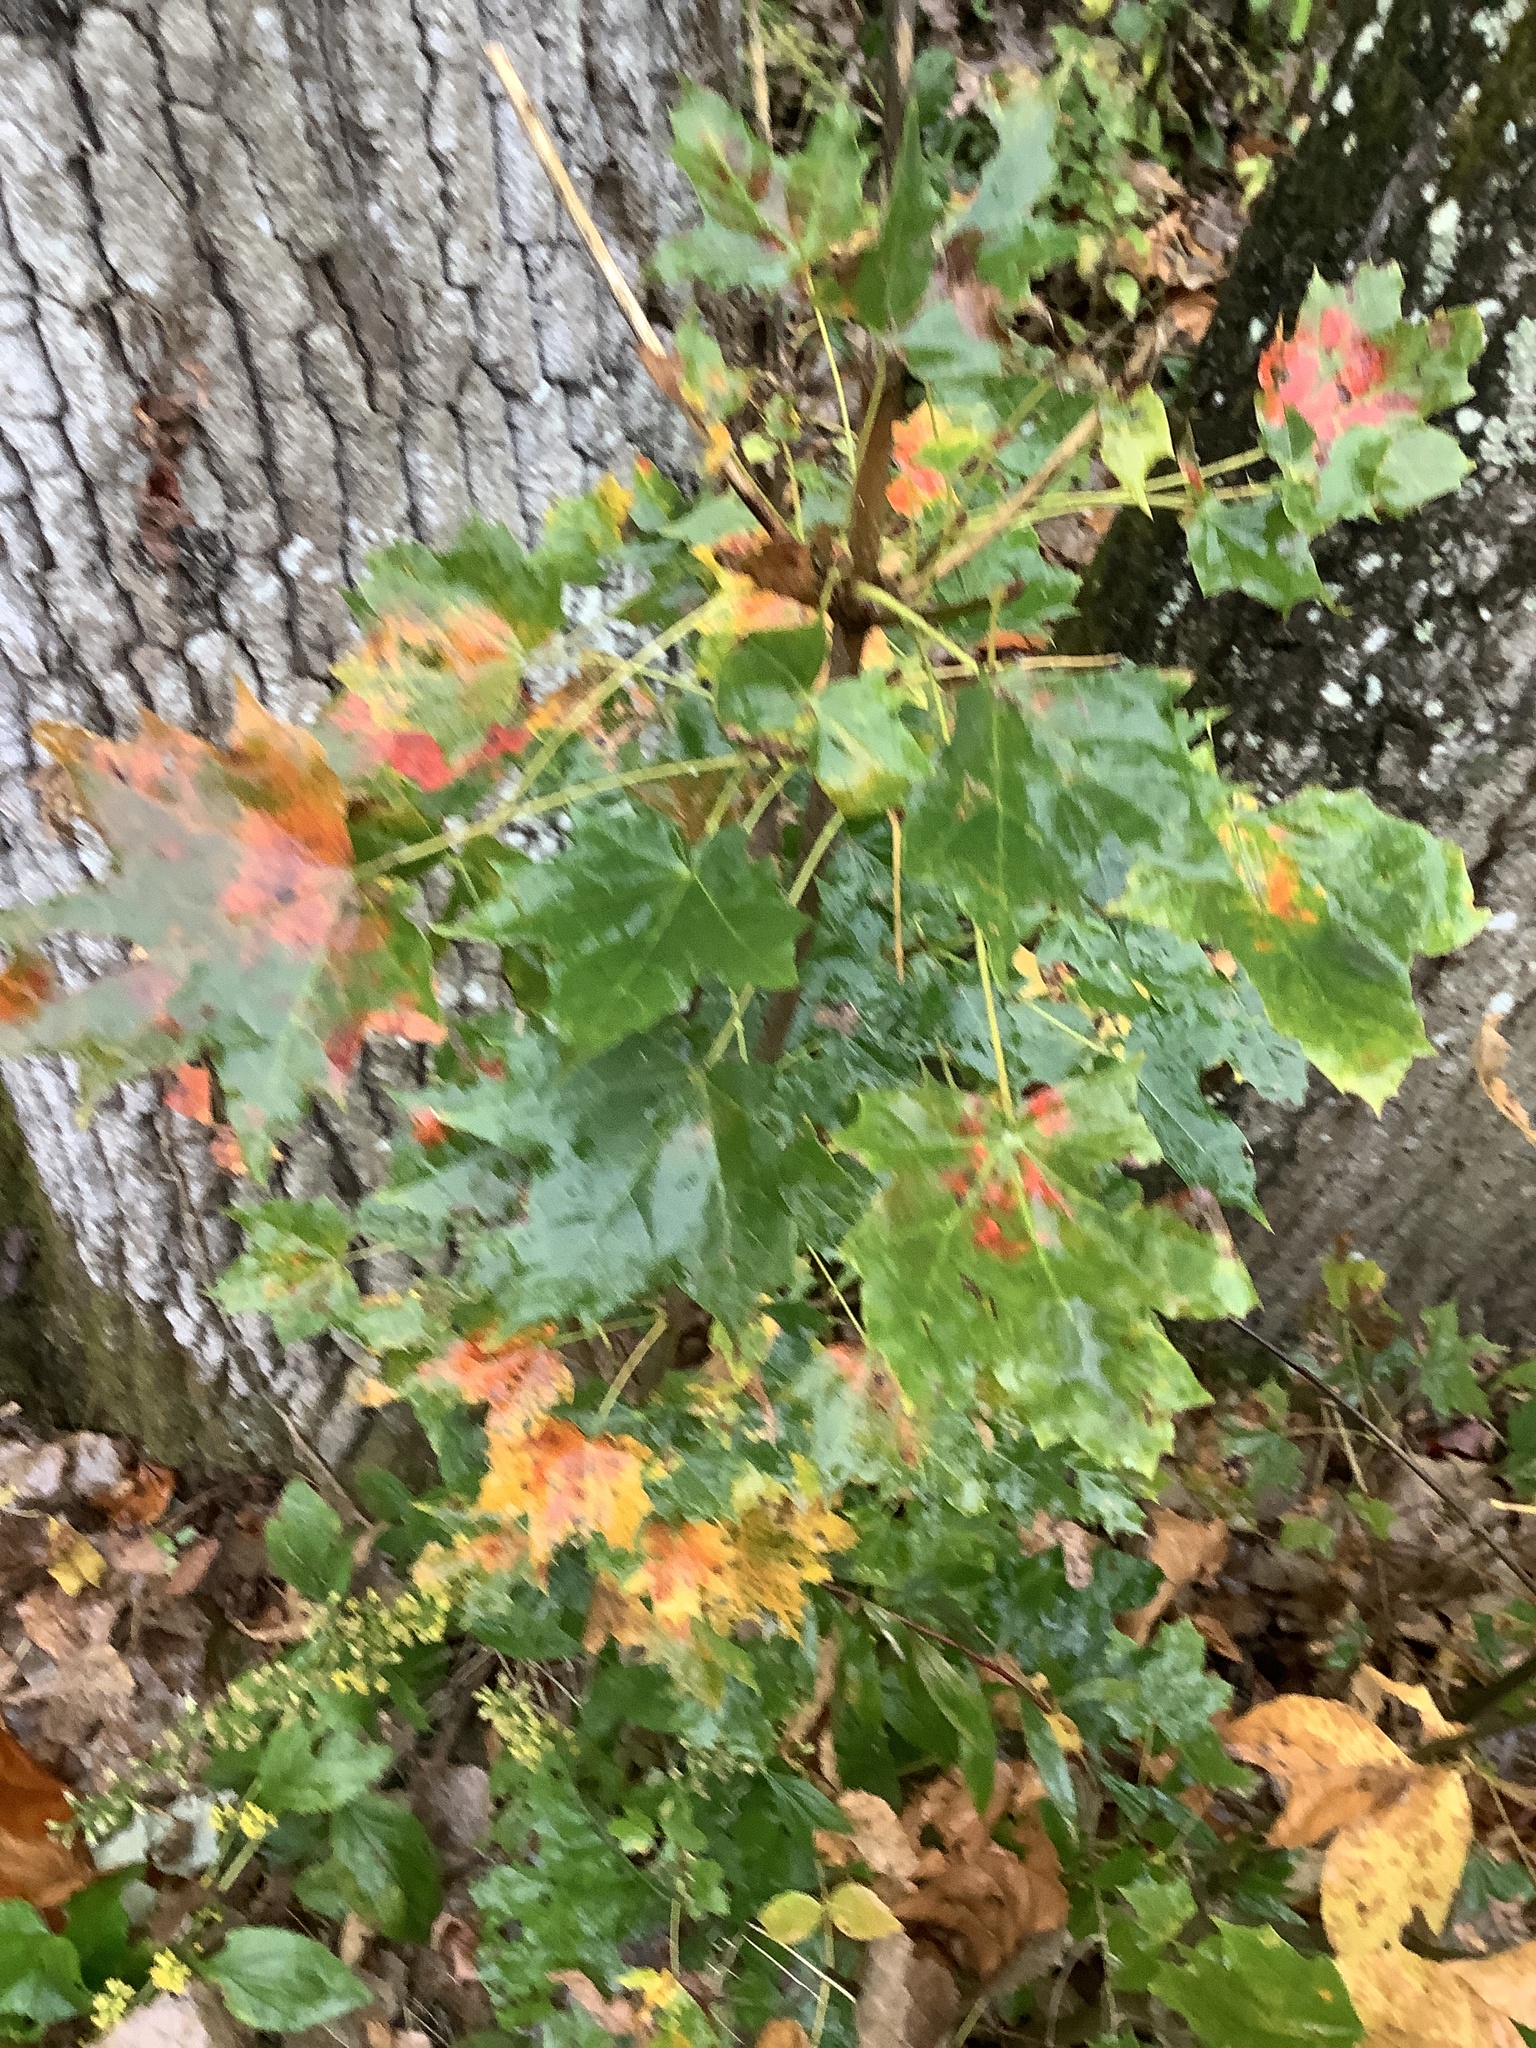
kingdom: Plantae
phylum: Tracheophyta
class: Magnoliopsida
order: Sapindales
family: Sapindaceae
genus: Acer
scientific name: Acer platanoides
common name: Norway maple
